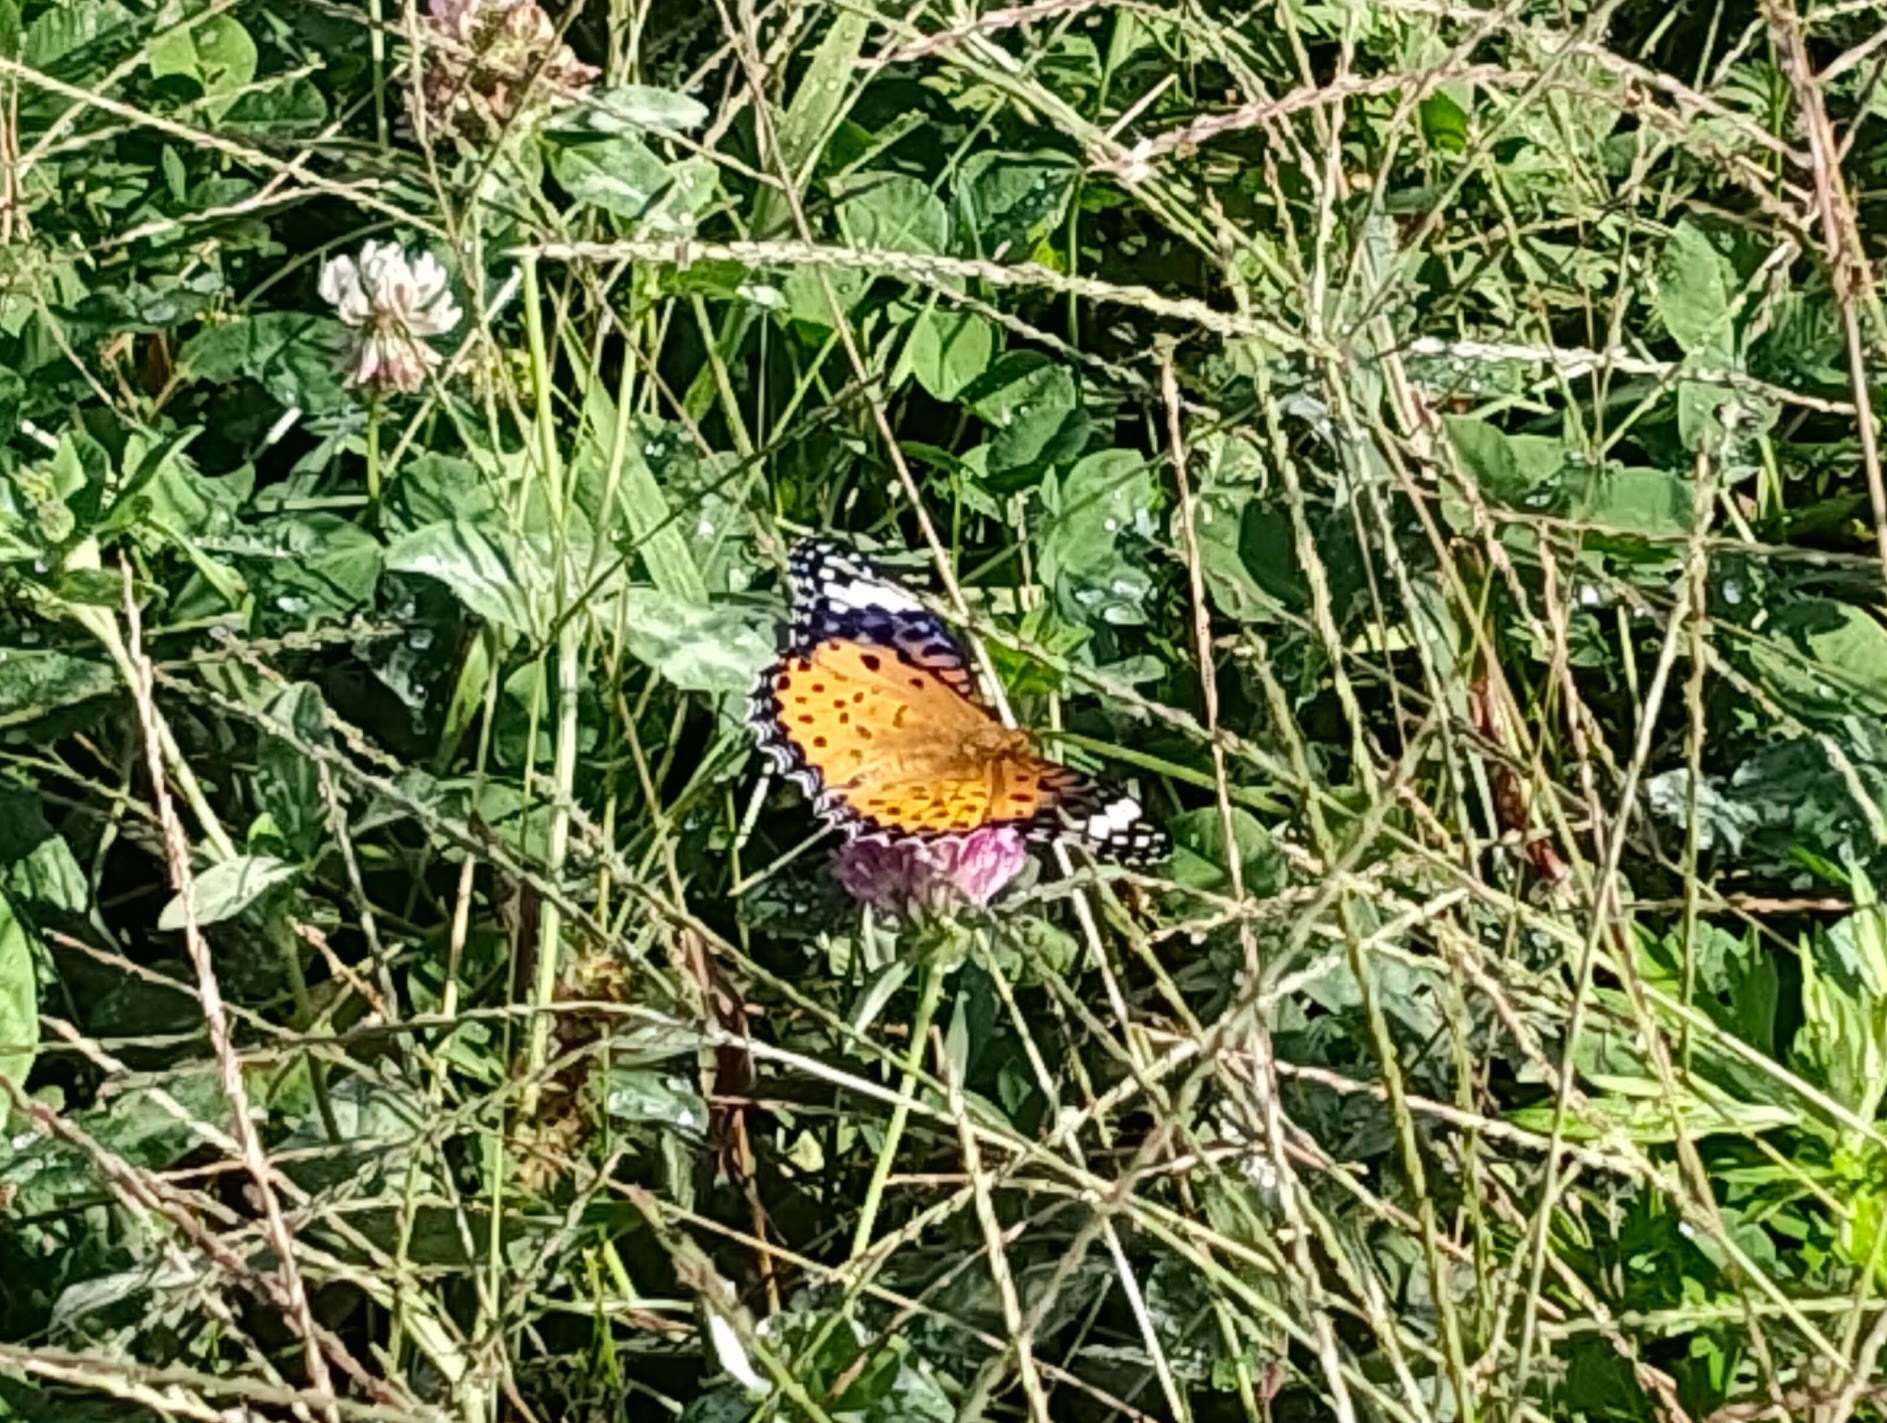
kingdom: Animalia
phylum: Arthropoda
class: Insecta
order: Lepidoptera
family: Nymphalidae
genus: Argynnis
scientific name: Argynnis hyperbius
